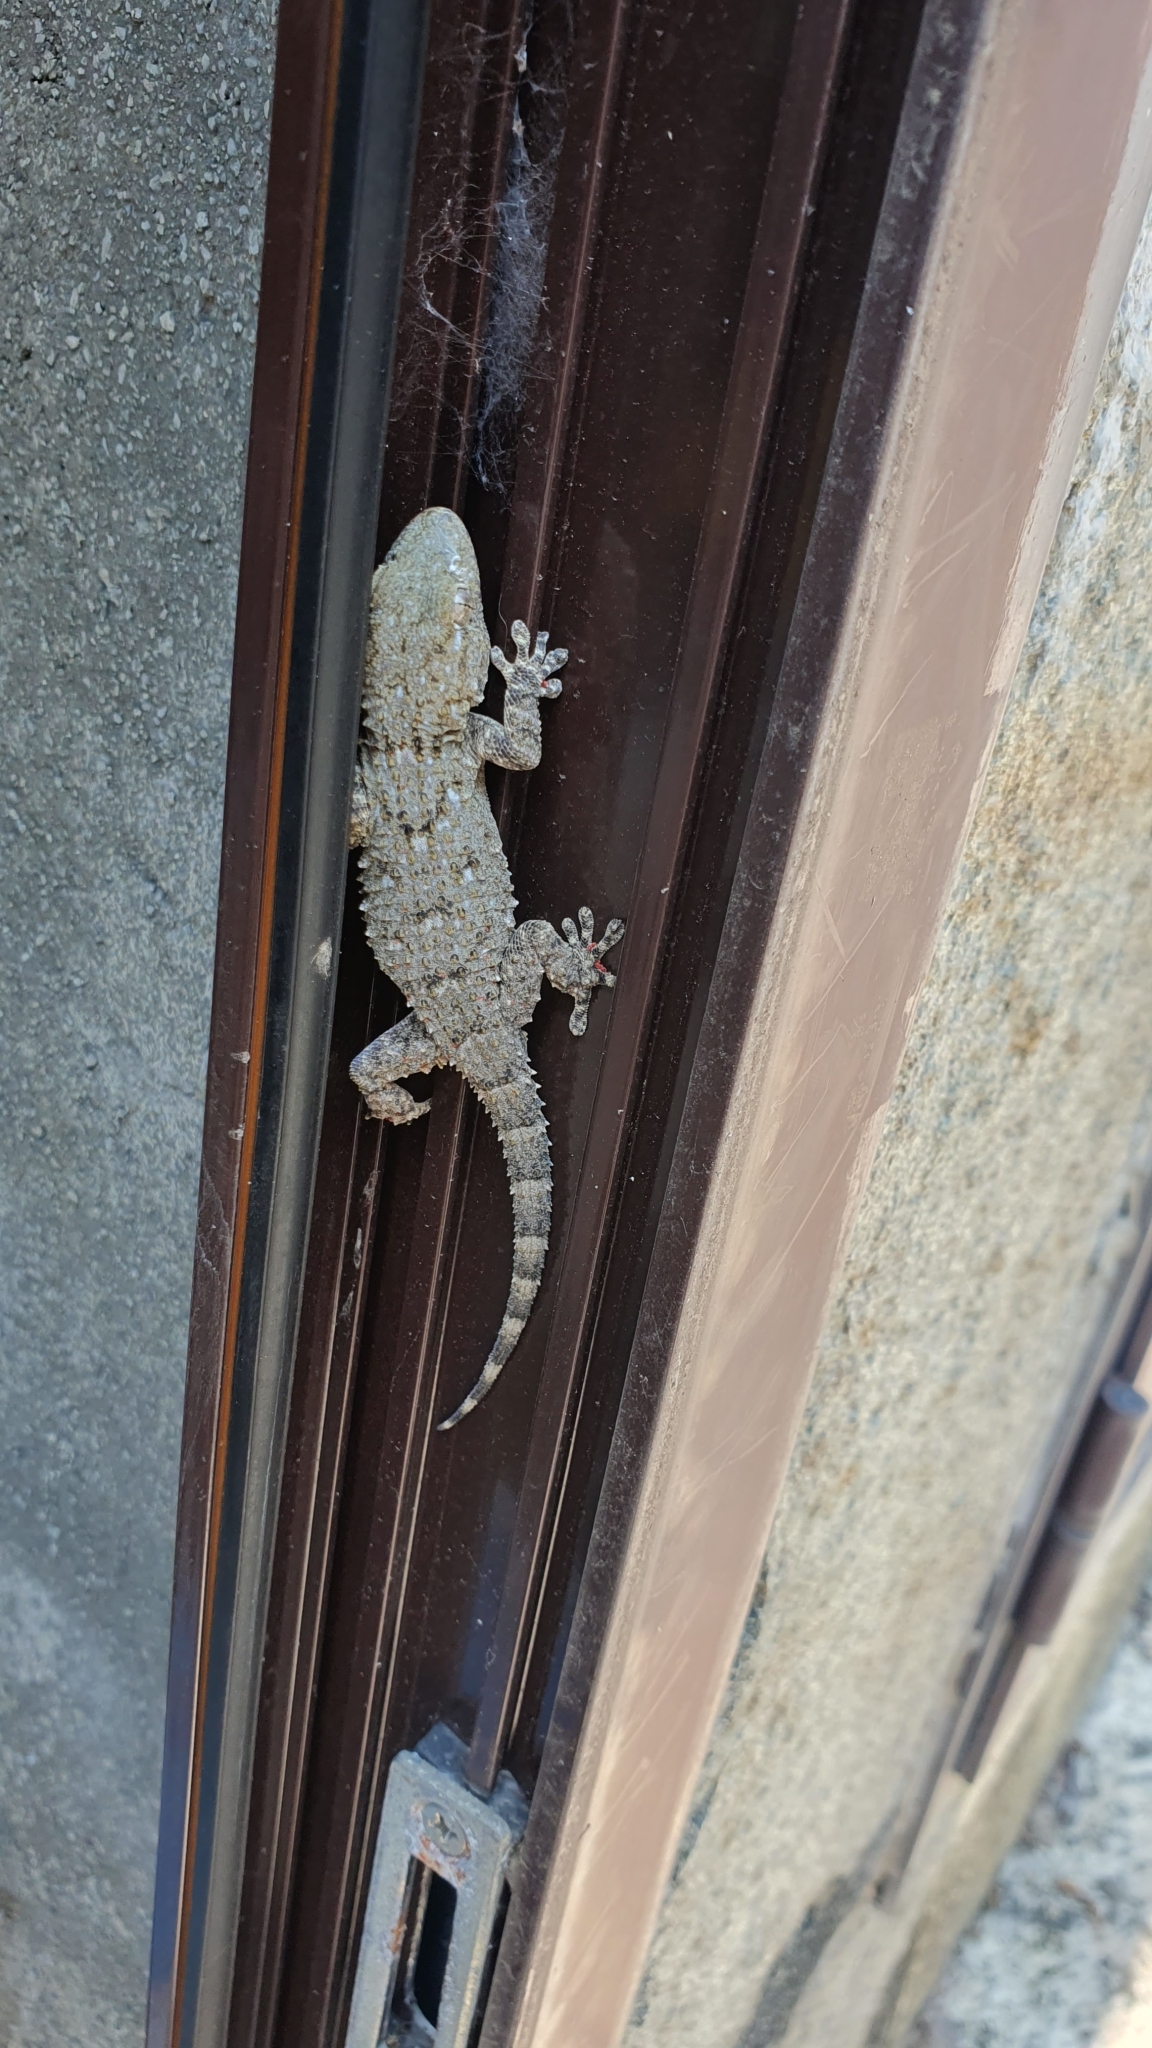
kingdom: Animalia
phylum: Chordata
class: Squamata
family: Phyllodactylidae
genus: Tarentola
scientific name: Tarentola mauritanica
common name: Moorish gecko
